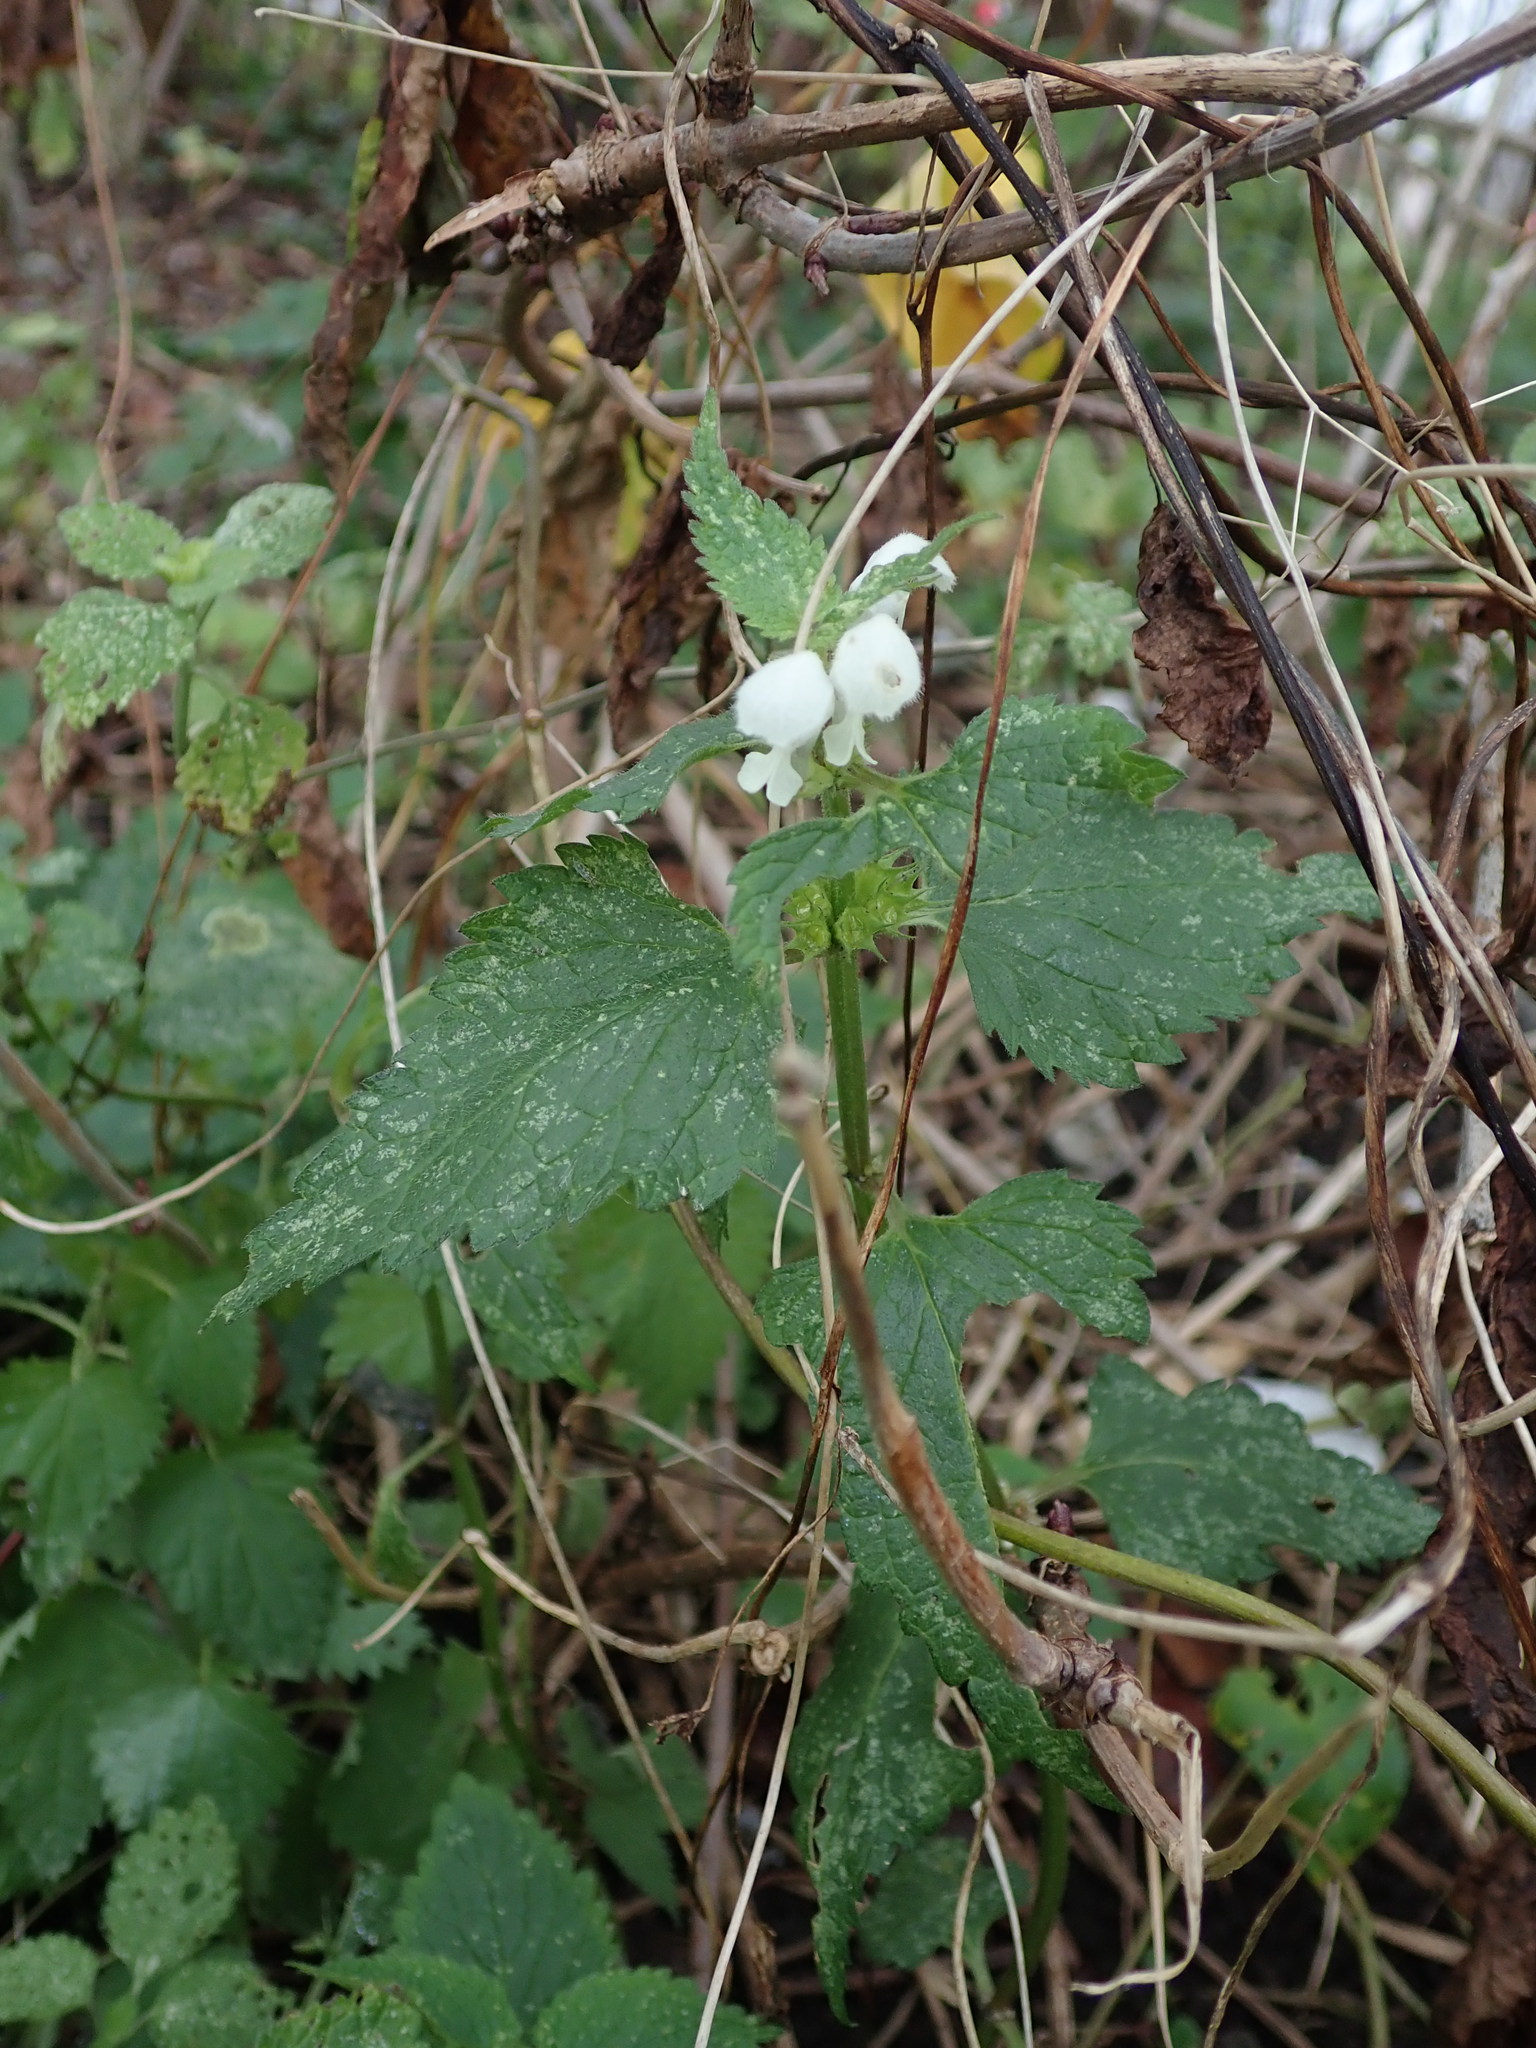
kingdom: Plantae
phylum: Tracheophyta
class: Magnoliopsida
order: Lamiales
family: Lamiaceae
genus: Lamium
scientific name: Lamium album
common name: White dead-nettle
